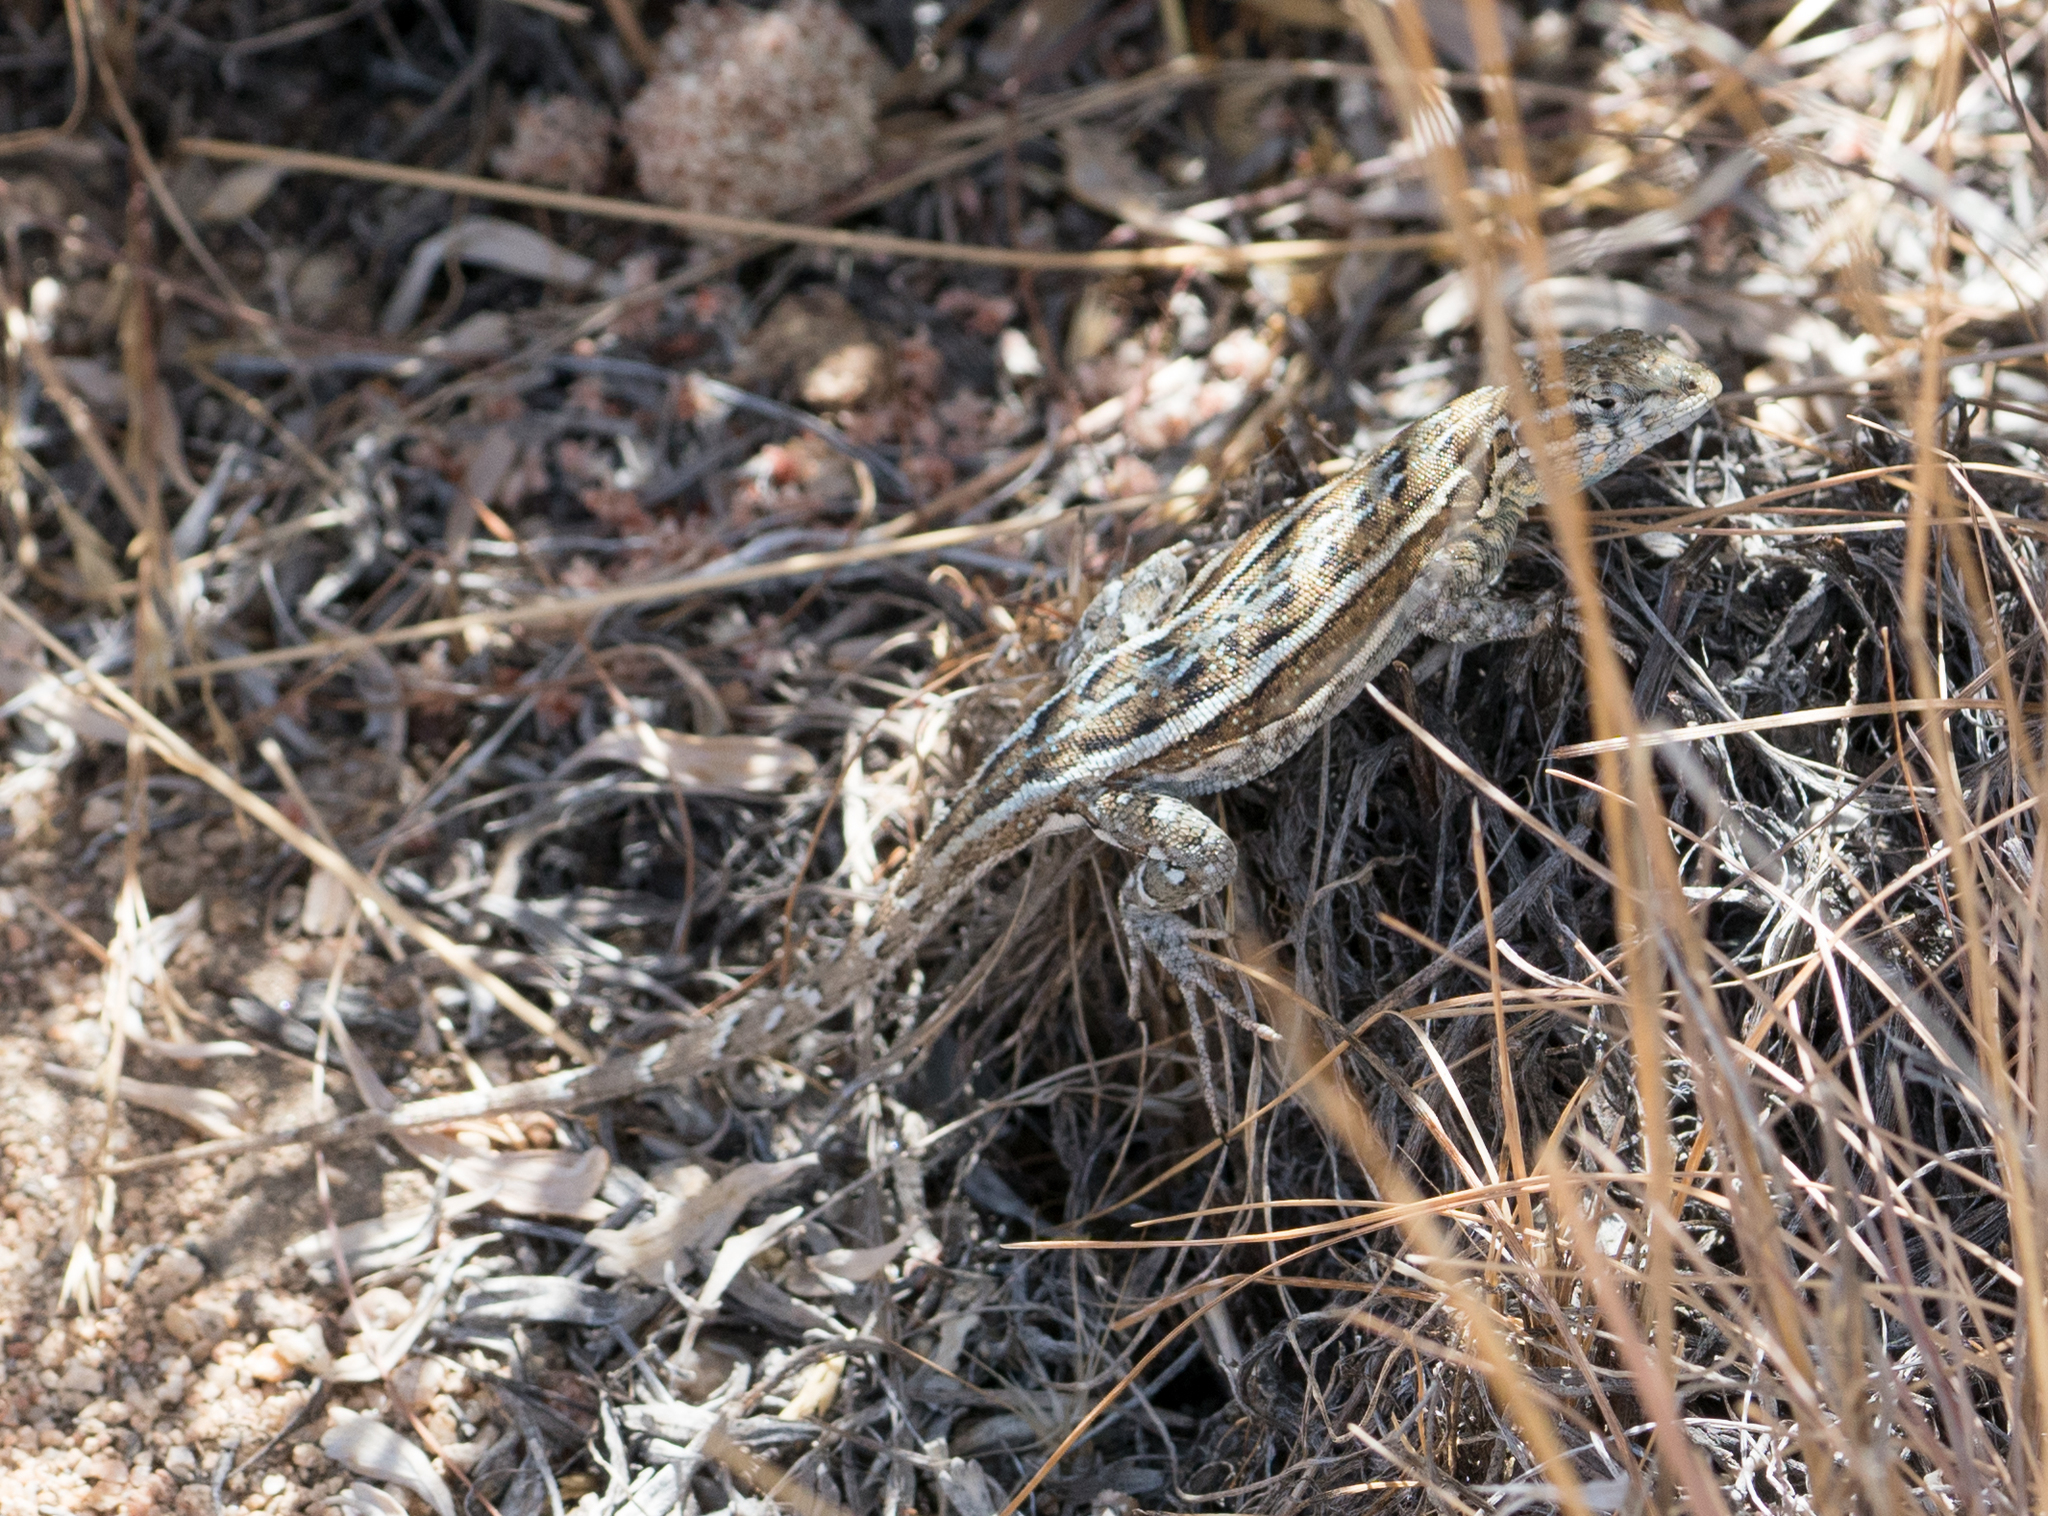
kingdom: Animalia
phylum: Chordata
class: Squamata
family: Phrynosomatidae
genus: Uta
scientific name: Uta stansburiana
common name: Side-blotched lizard
